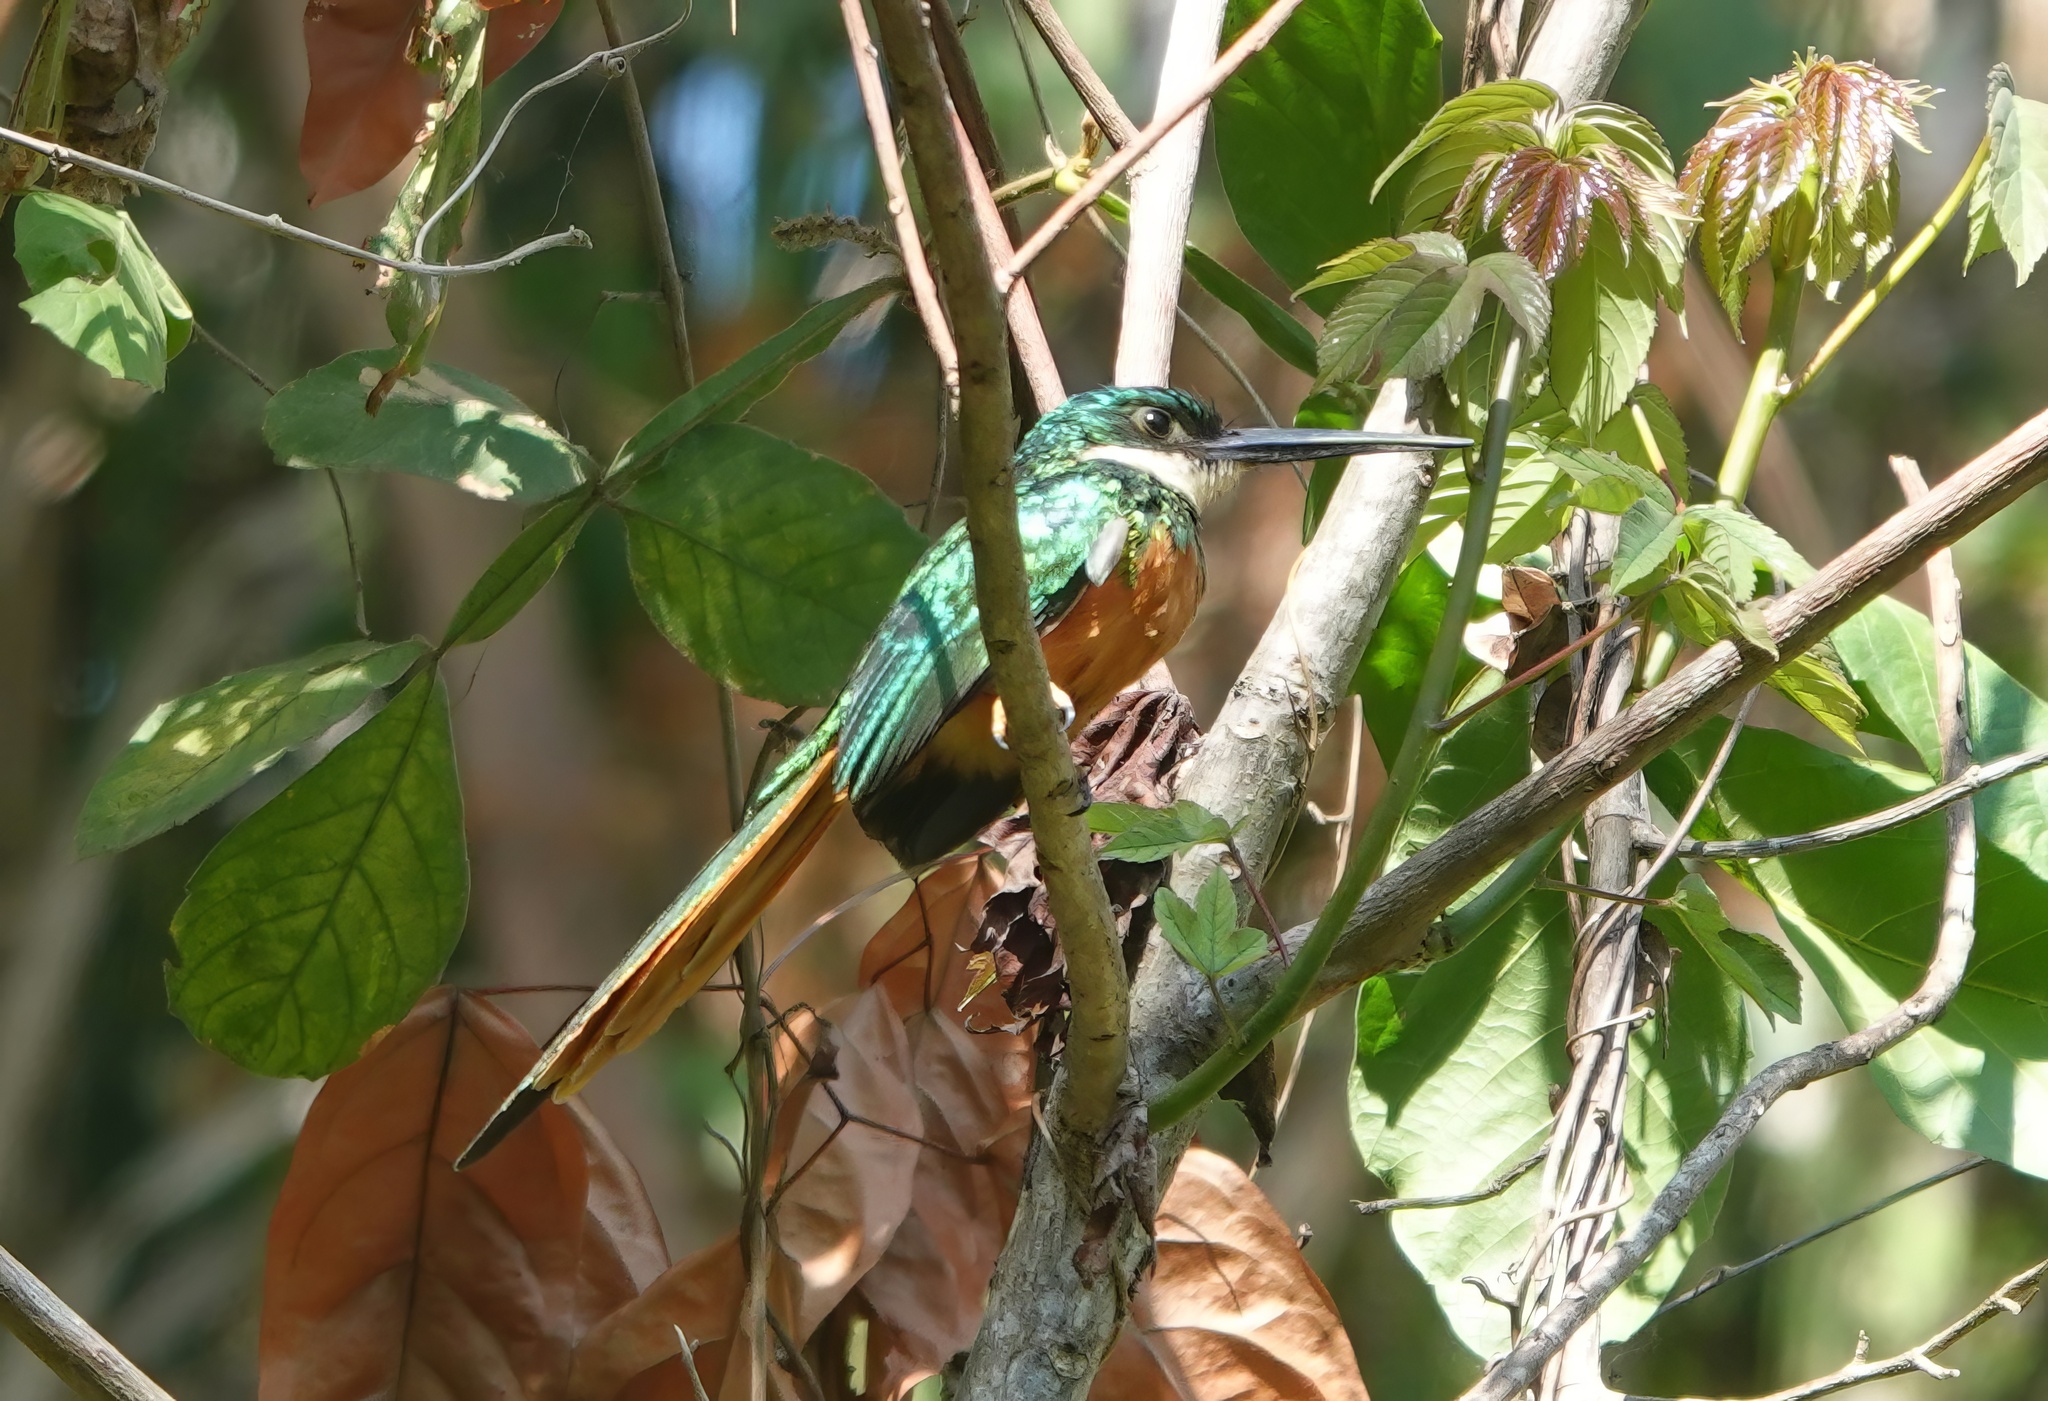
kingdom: Animalia
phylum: Chordata
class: Aves
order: Piciformes
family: Galbulidae
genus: Galbula
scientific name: Galbula ruficauda
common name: Rufous-tailed jacamar
